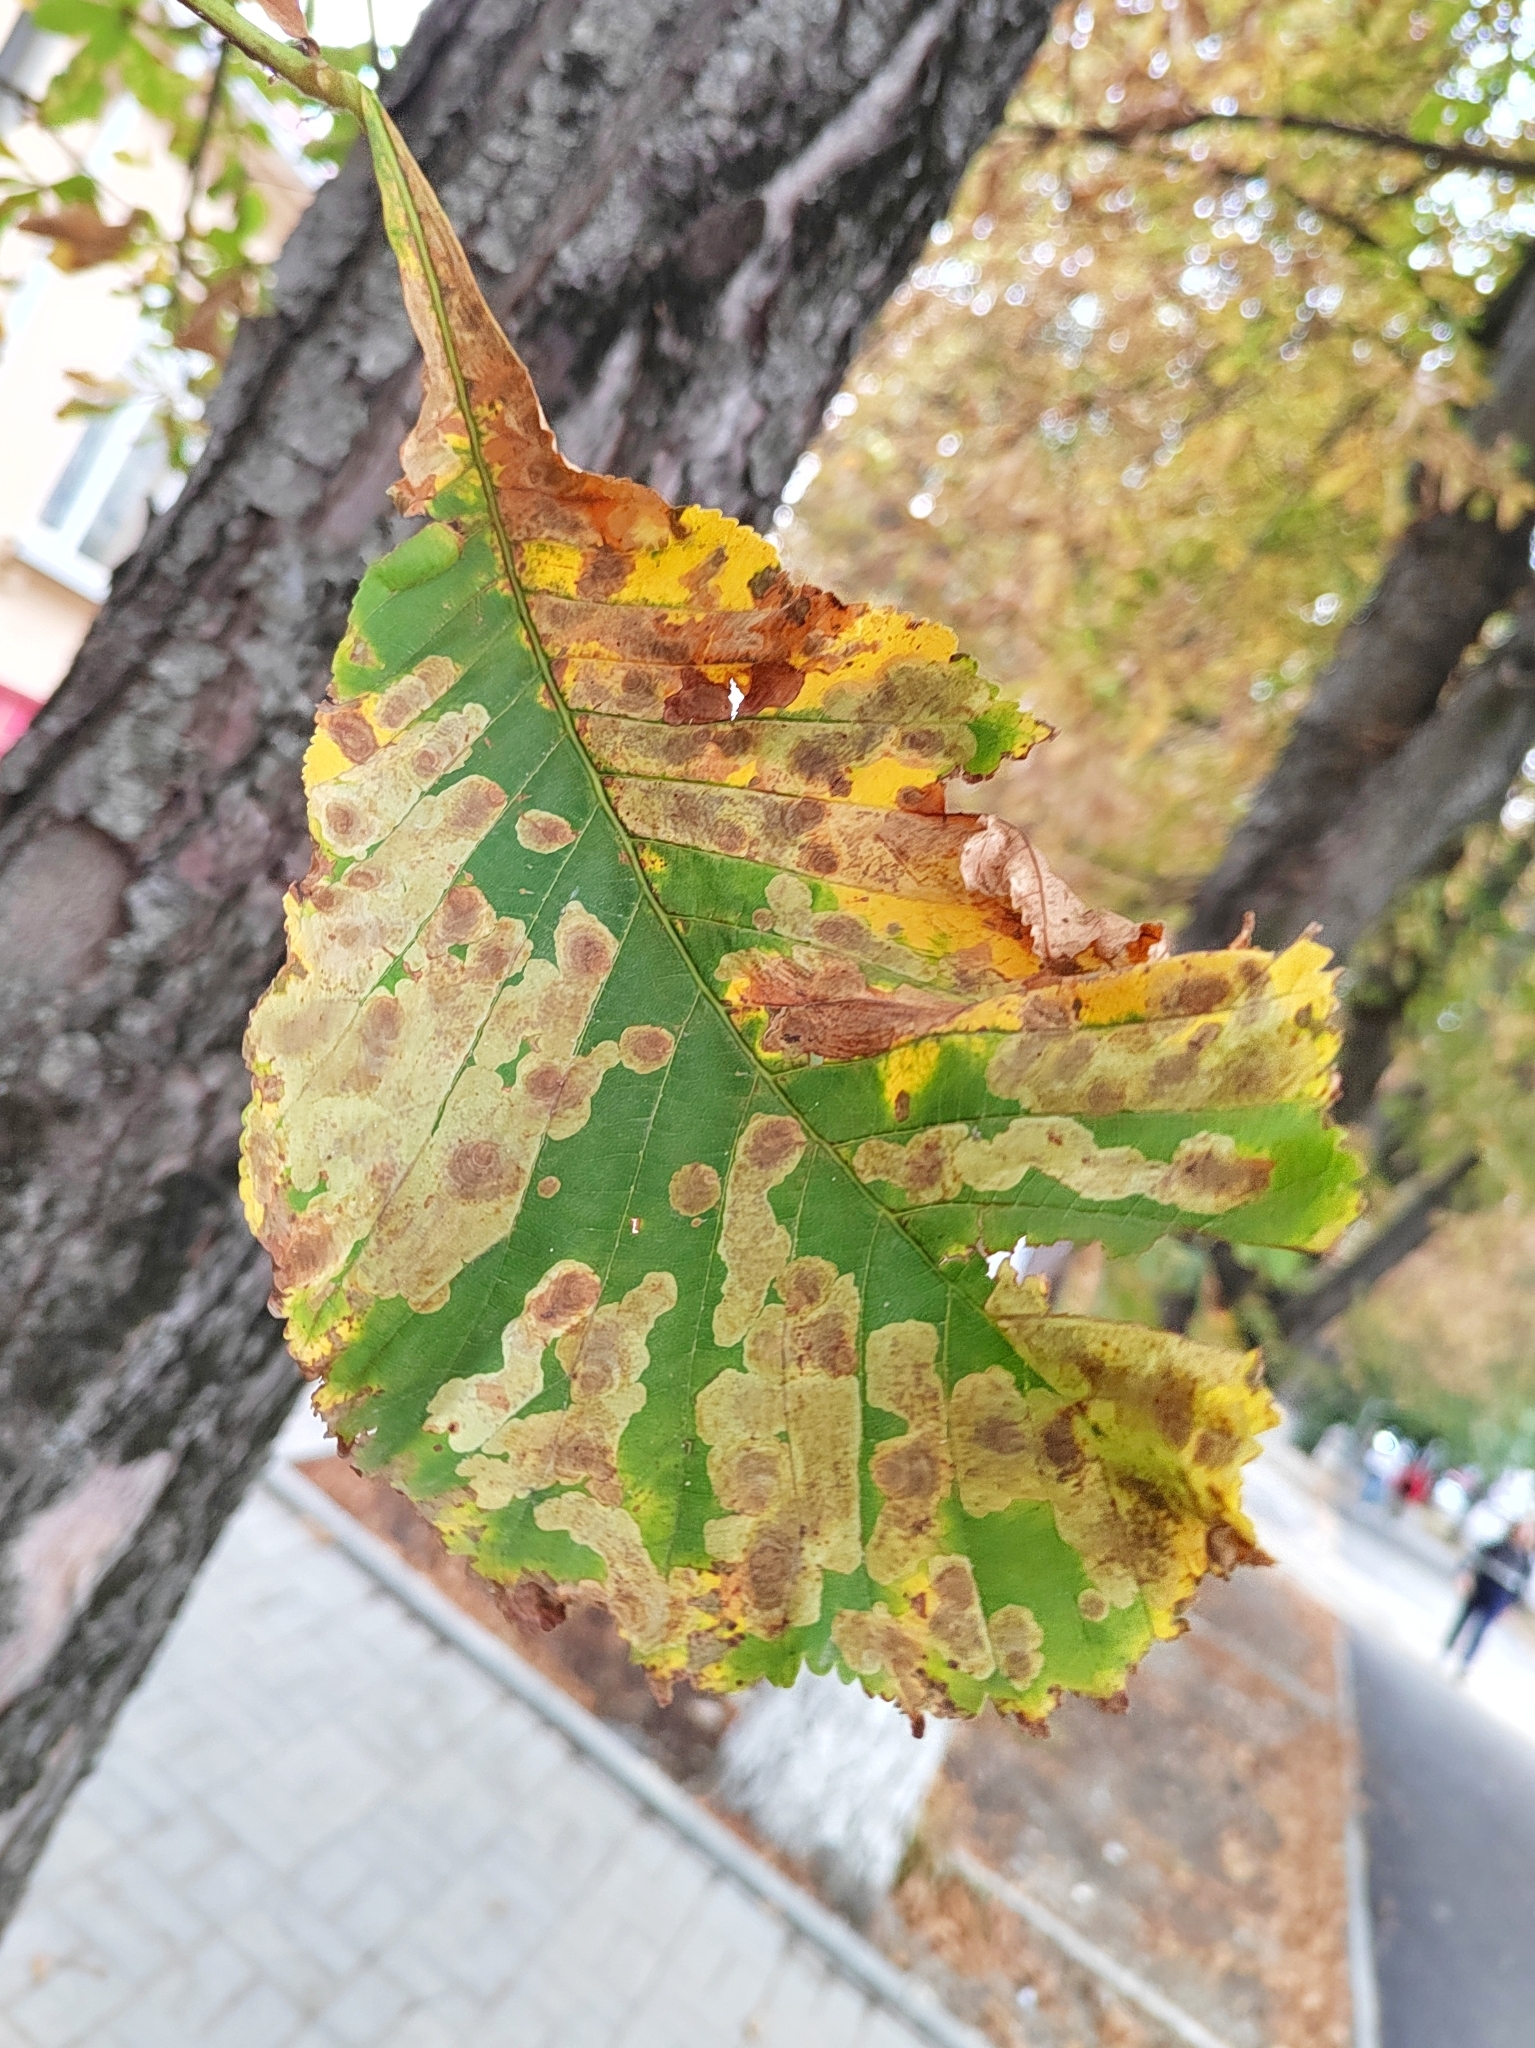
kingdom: Animalia
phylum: Arthropoda
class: Insecta
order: Lepidoptera
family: Gracillariidae
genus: Cameraria
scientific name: Cameraria ohridella
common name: Horse-chestnut leaf-miner
